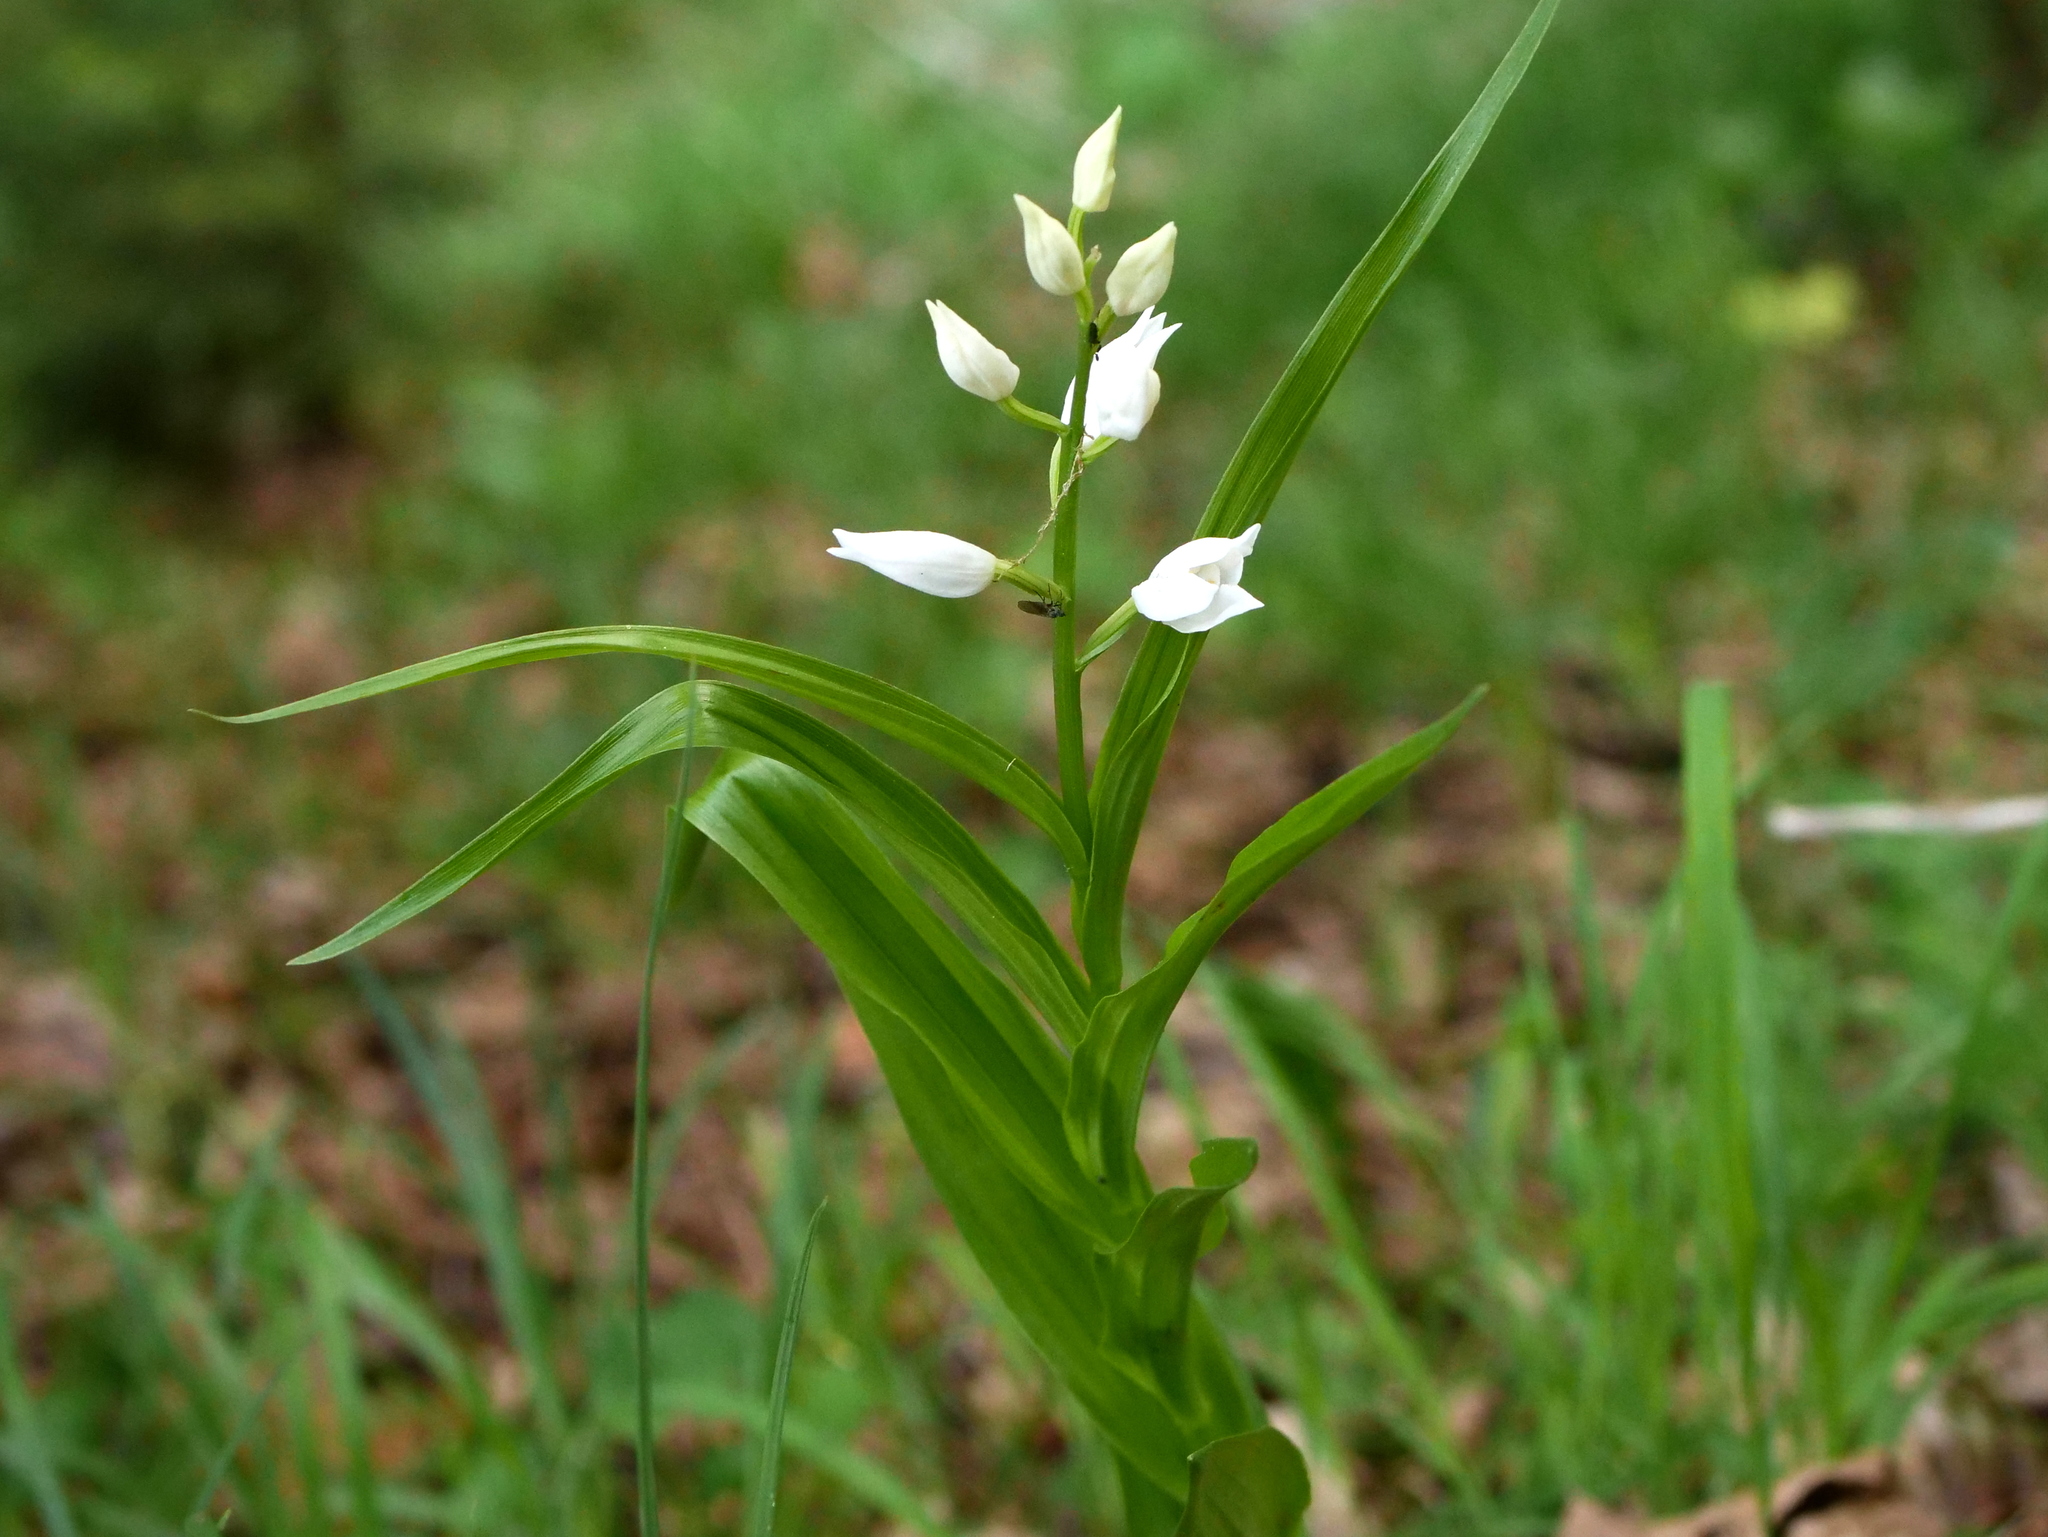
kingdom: Plantae
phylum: Tracheophyta
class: Liliopsida
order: Asparagales
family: Orchidaceae
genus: Cephalanthera
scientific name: Cephalanthera longifolia
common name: Narrow-leaved helleborine
